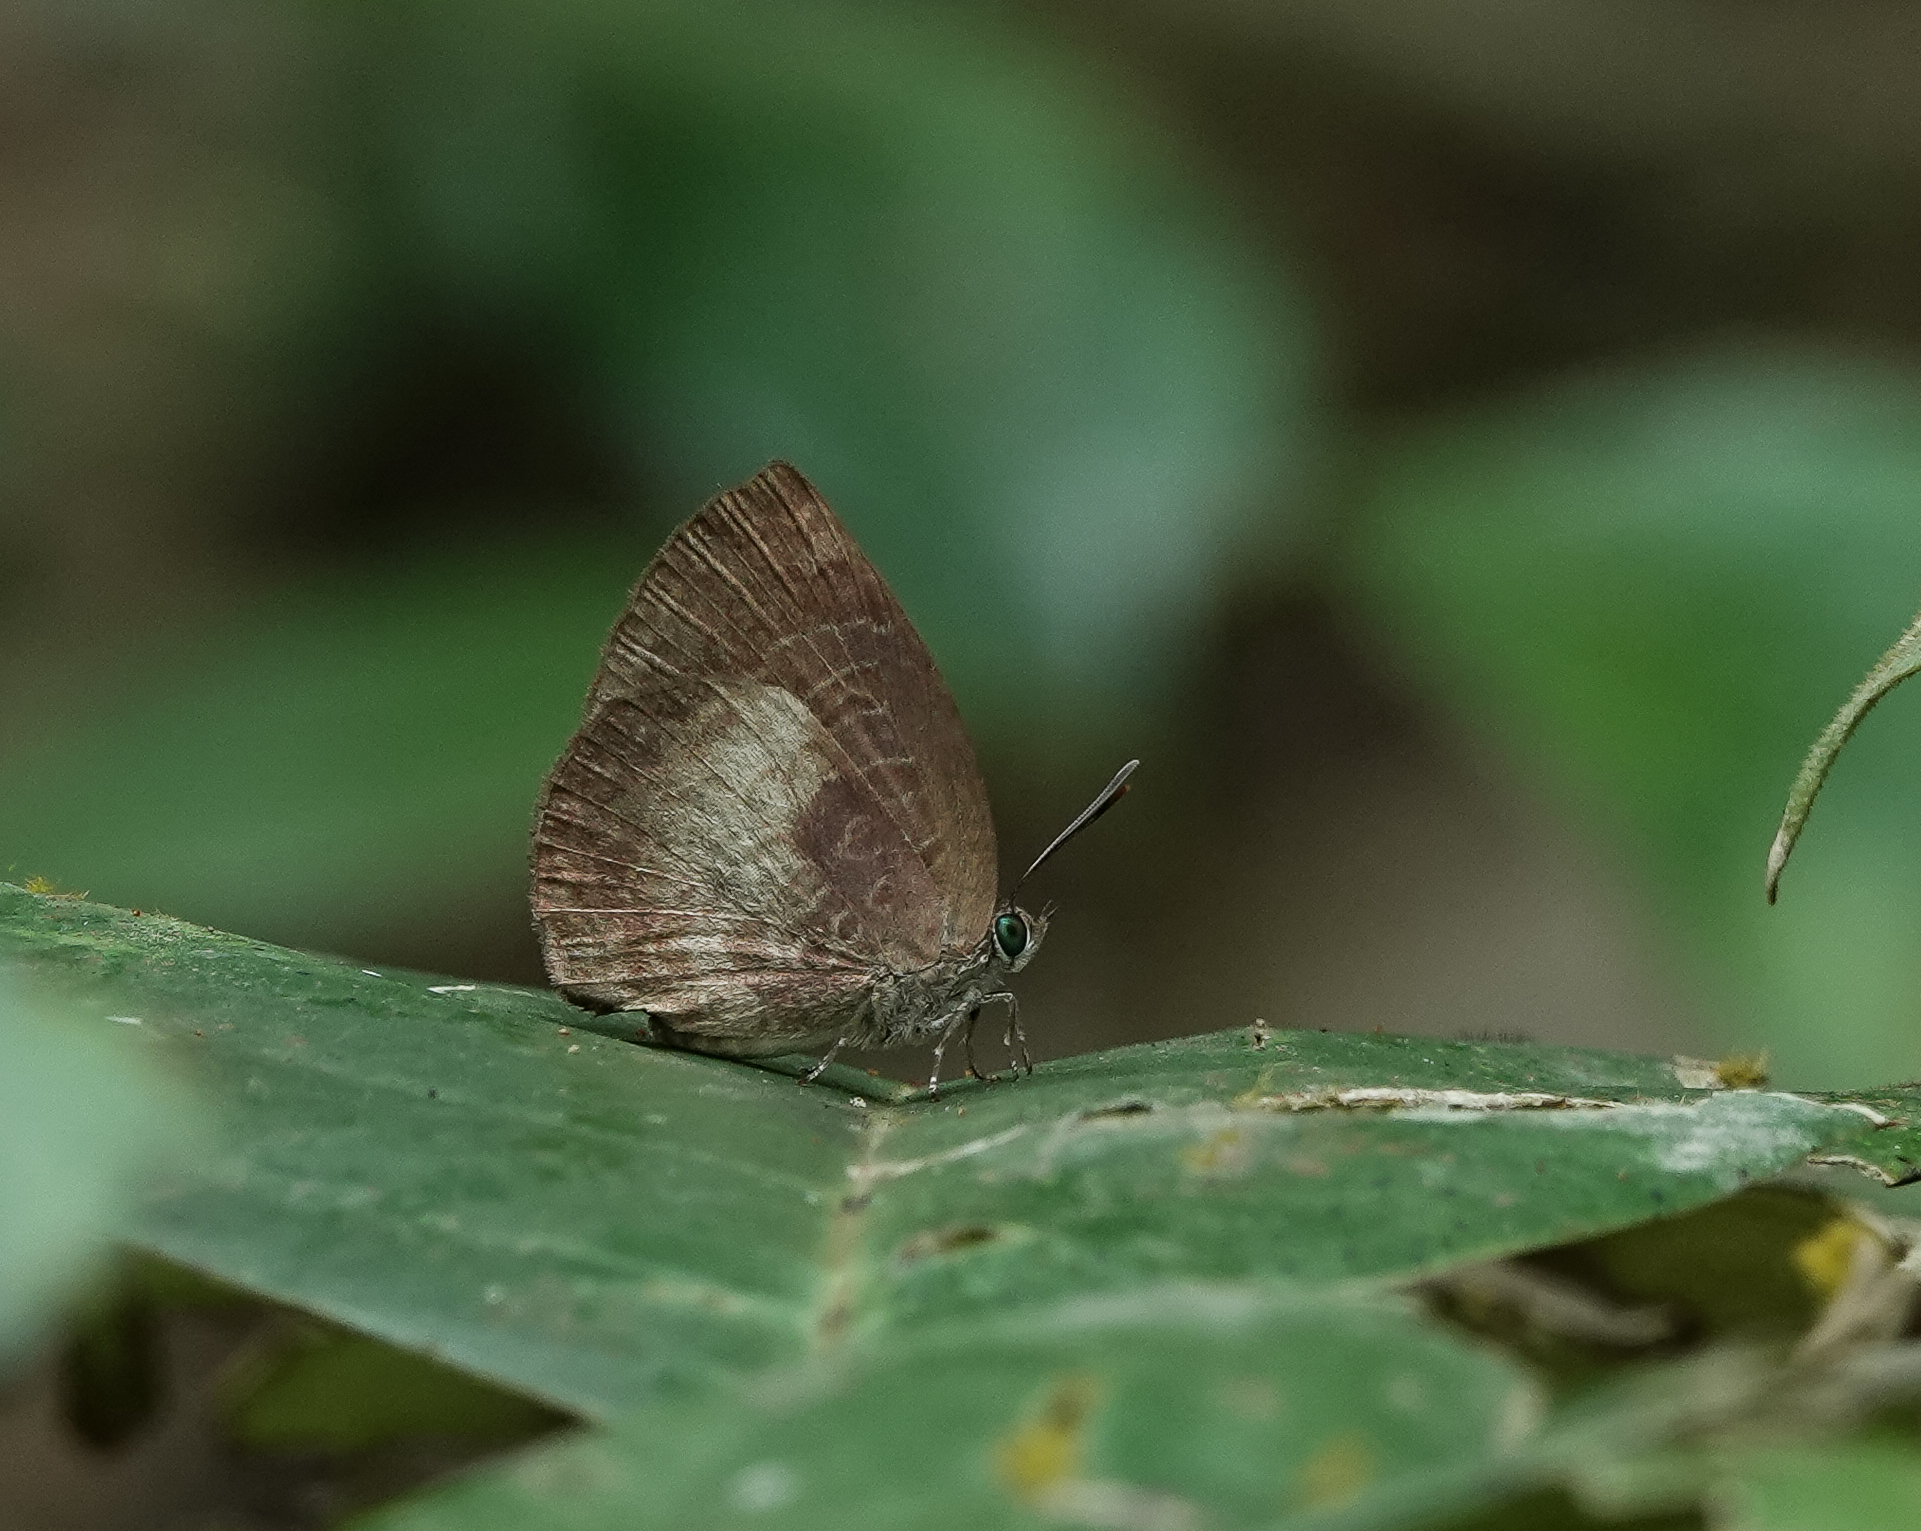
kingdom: Animalia
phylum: Arthropoda
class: Insecta
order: Lepidoptera
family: Lycaenidae
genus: Arhopala
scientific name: Arhopala perimuta
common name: Yellowdisc oakblue
